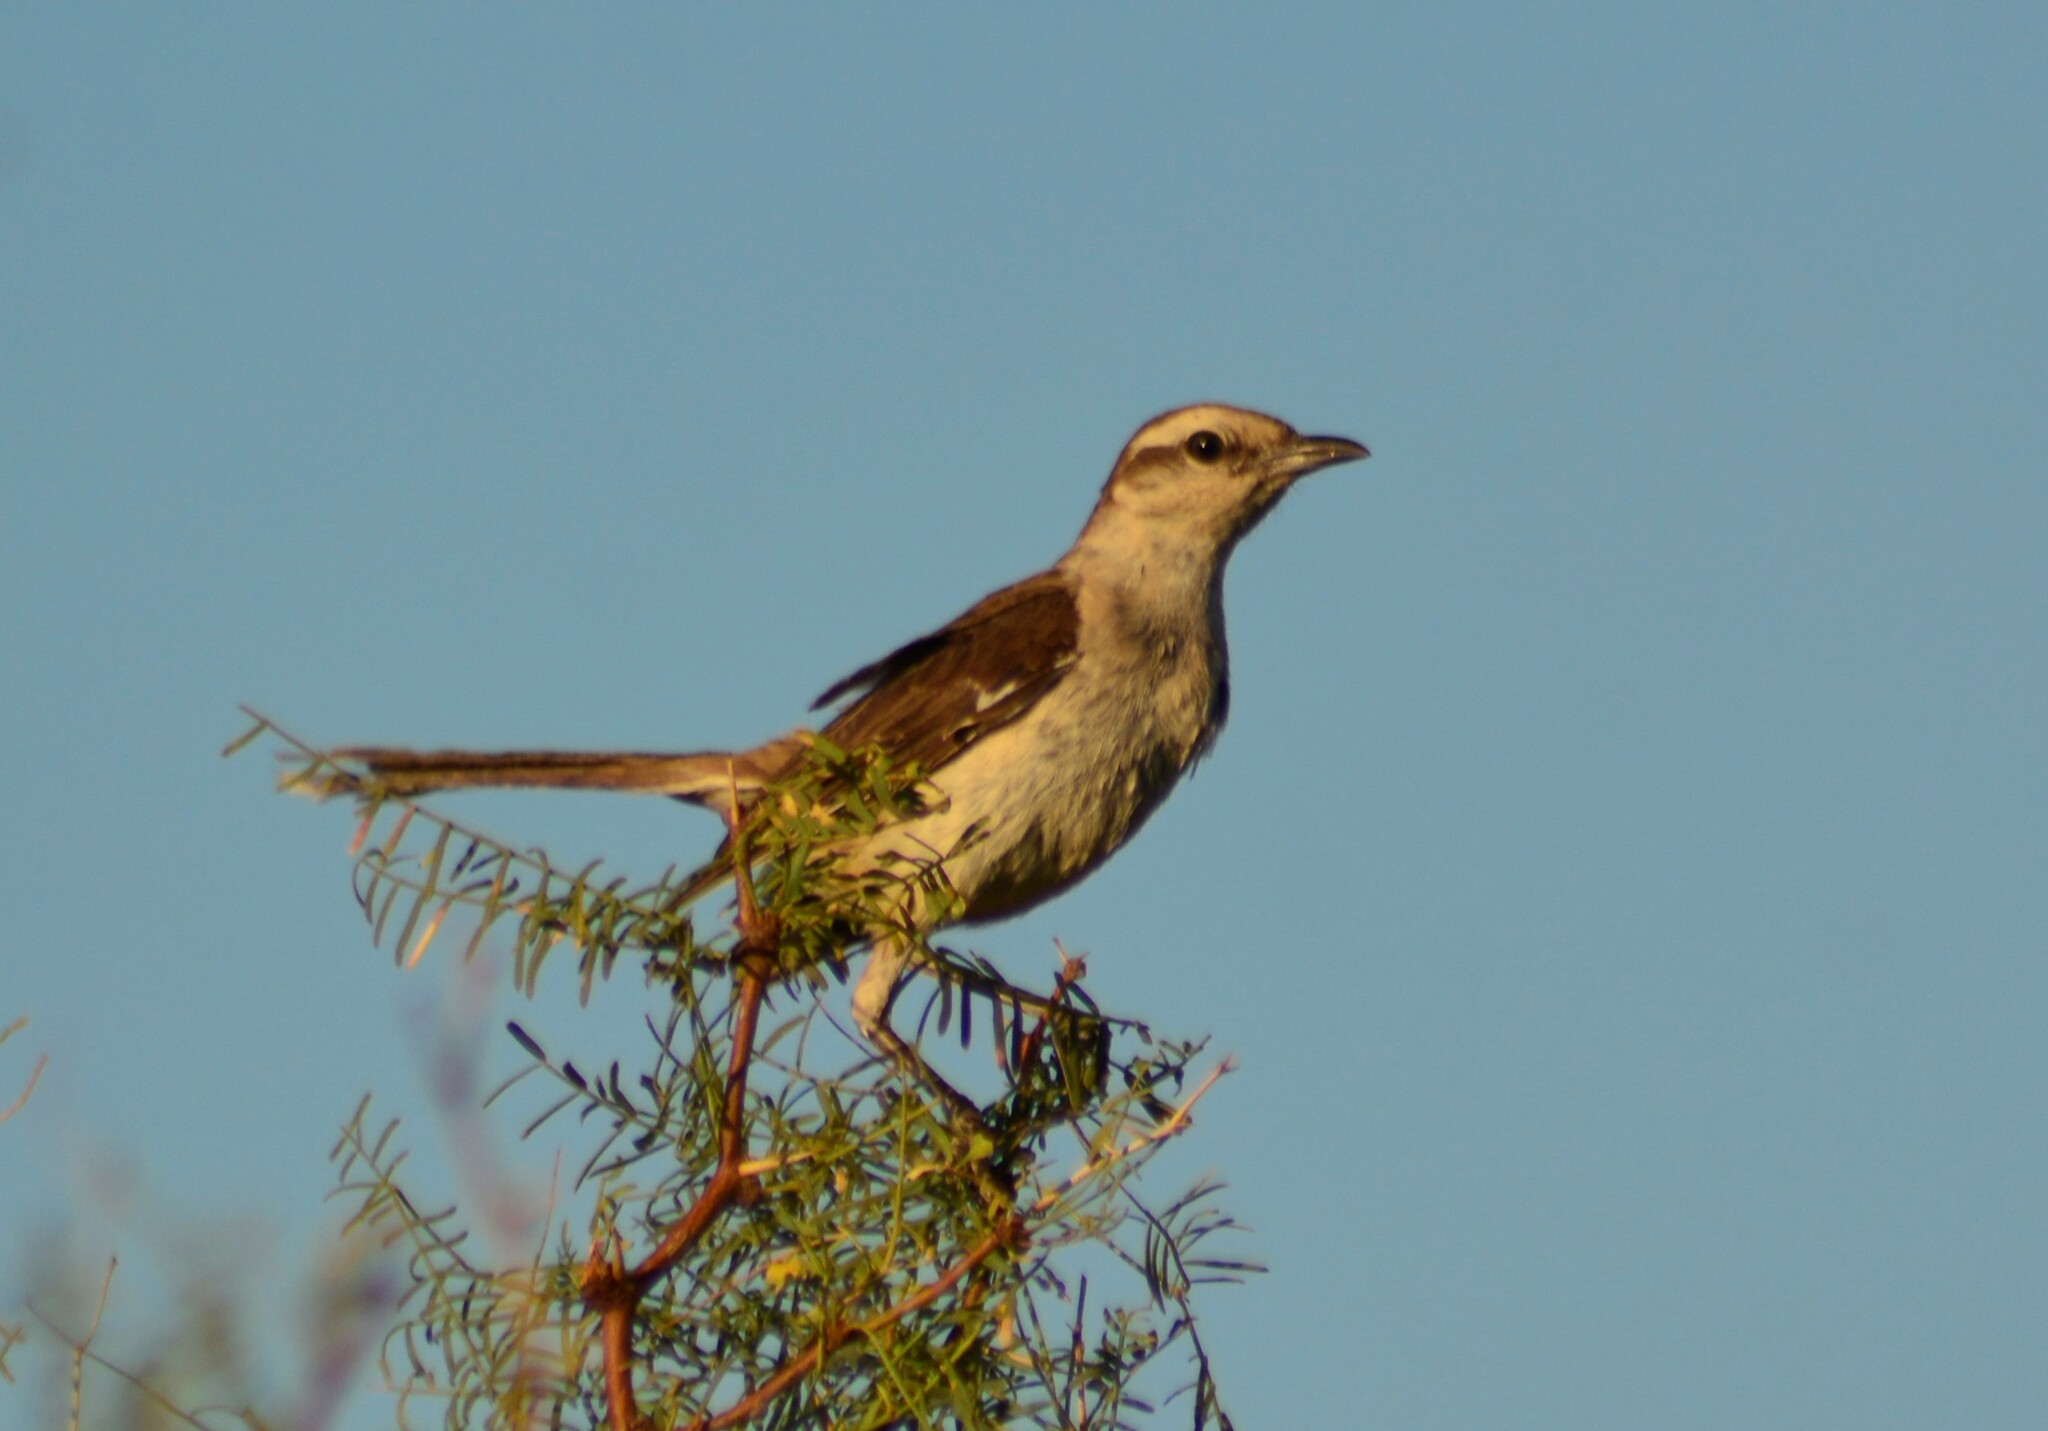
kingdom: Animalia
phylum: Chordata
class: Aves
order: Passeriformes
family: Mimidae
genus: Mimus
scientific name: Mimus saturninus
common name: Chalk-browed mockingbird
